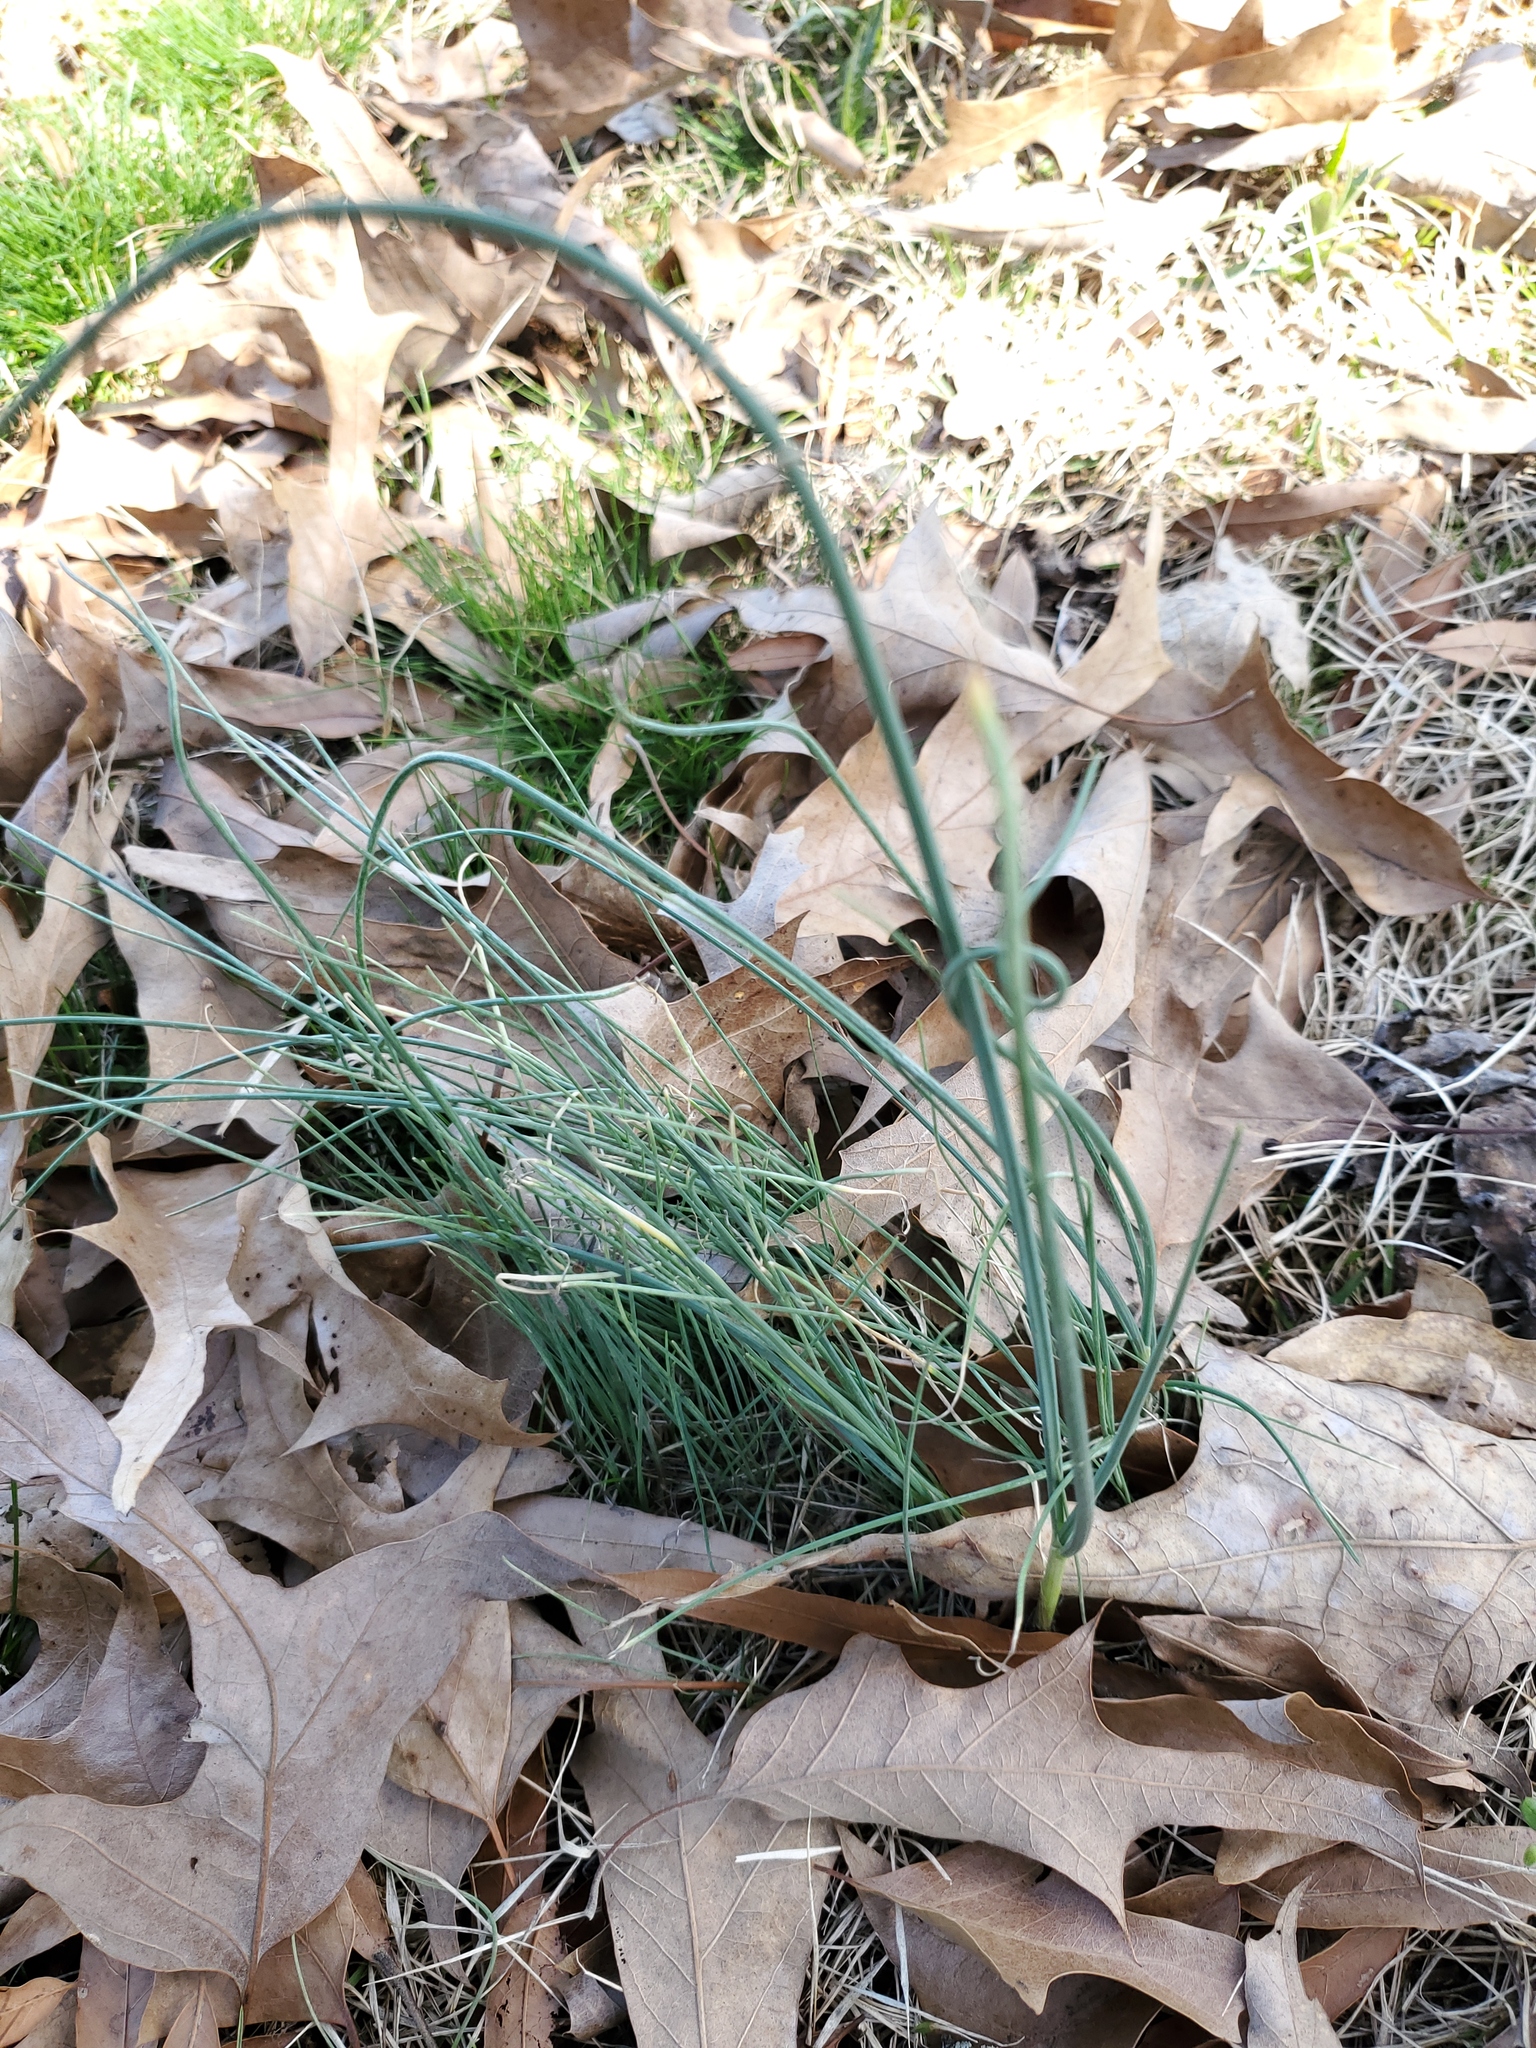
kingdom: Plantae
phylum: Tracheophyta
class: Liliopsida
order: Asparagales
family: Amaryllidaceae
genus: Allium
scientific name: Allium vineale
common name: Crow garlic
